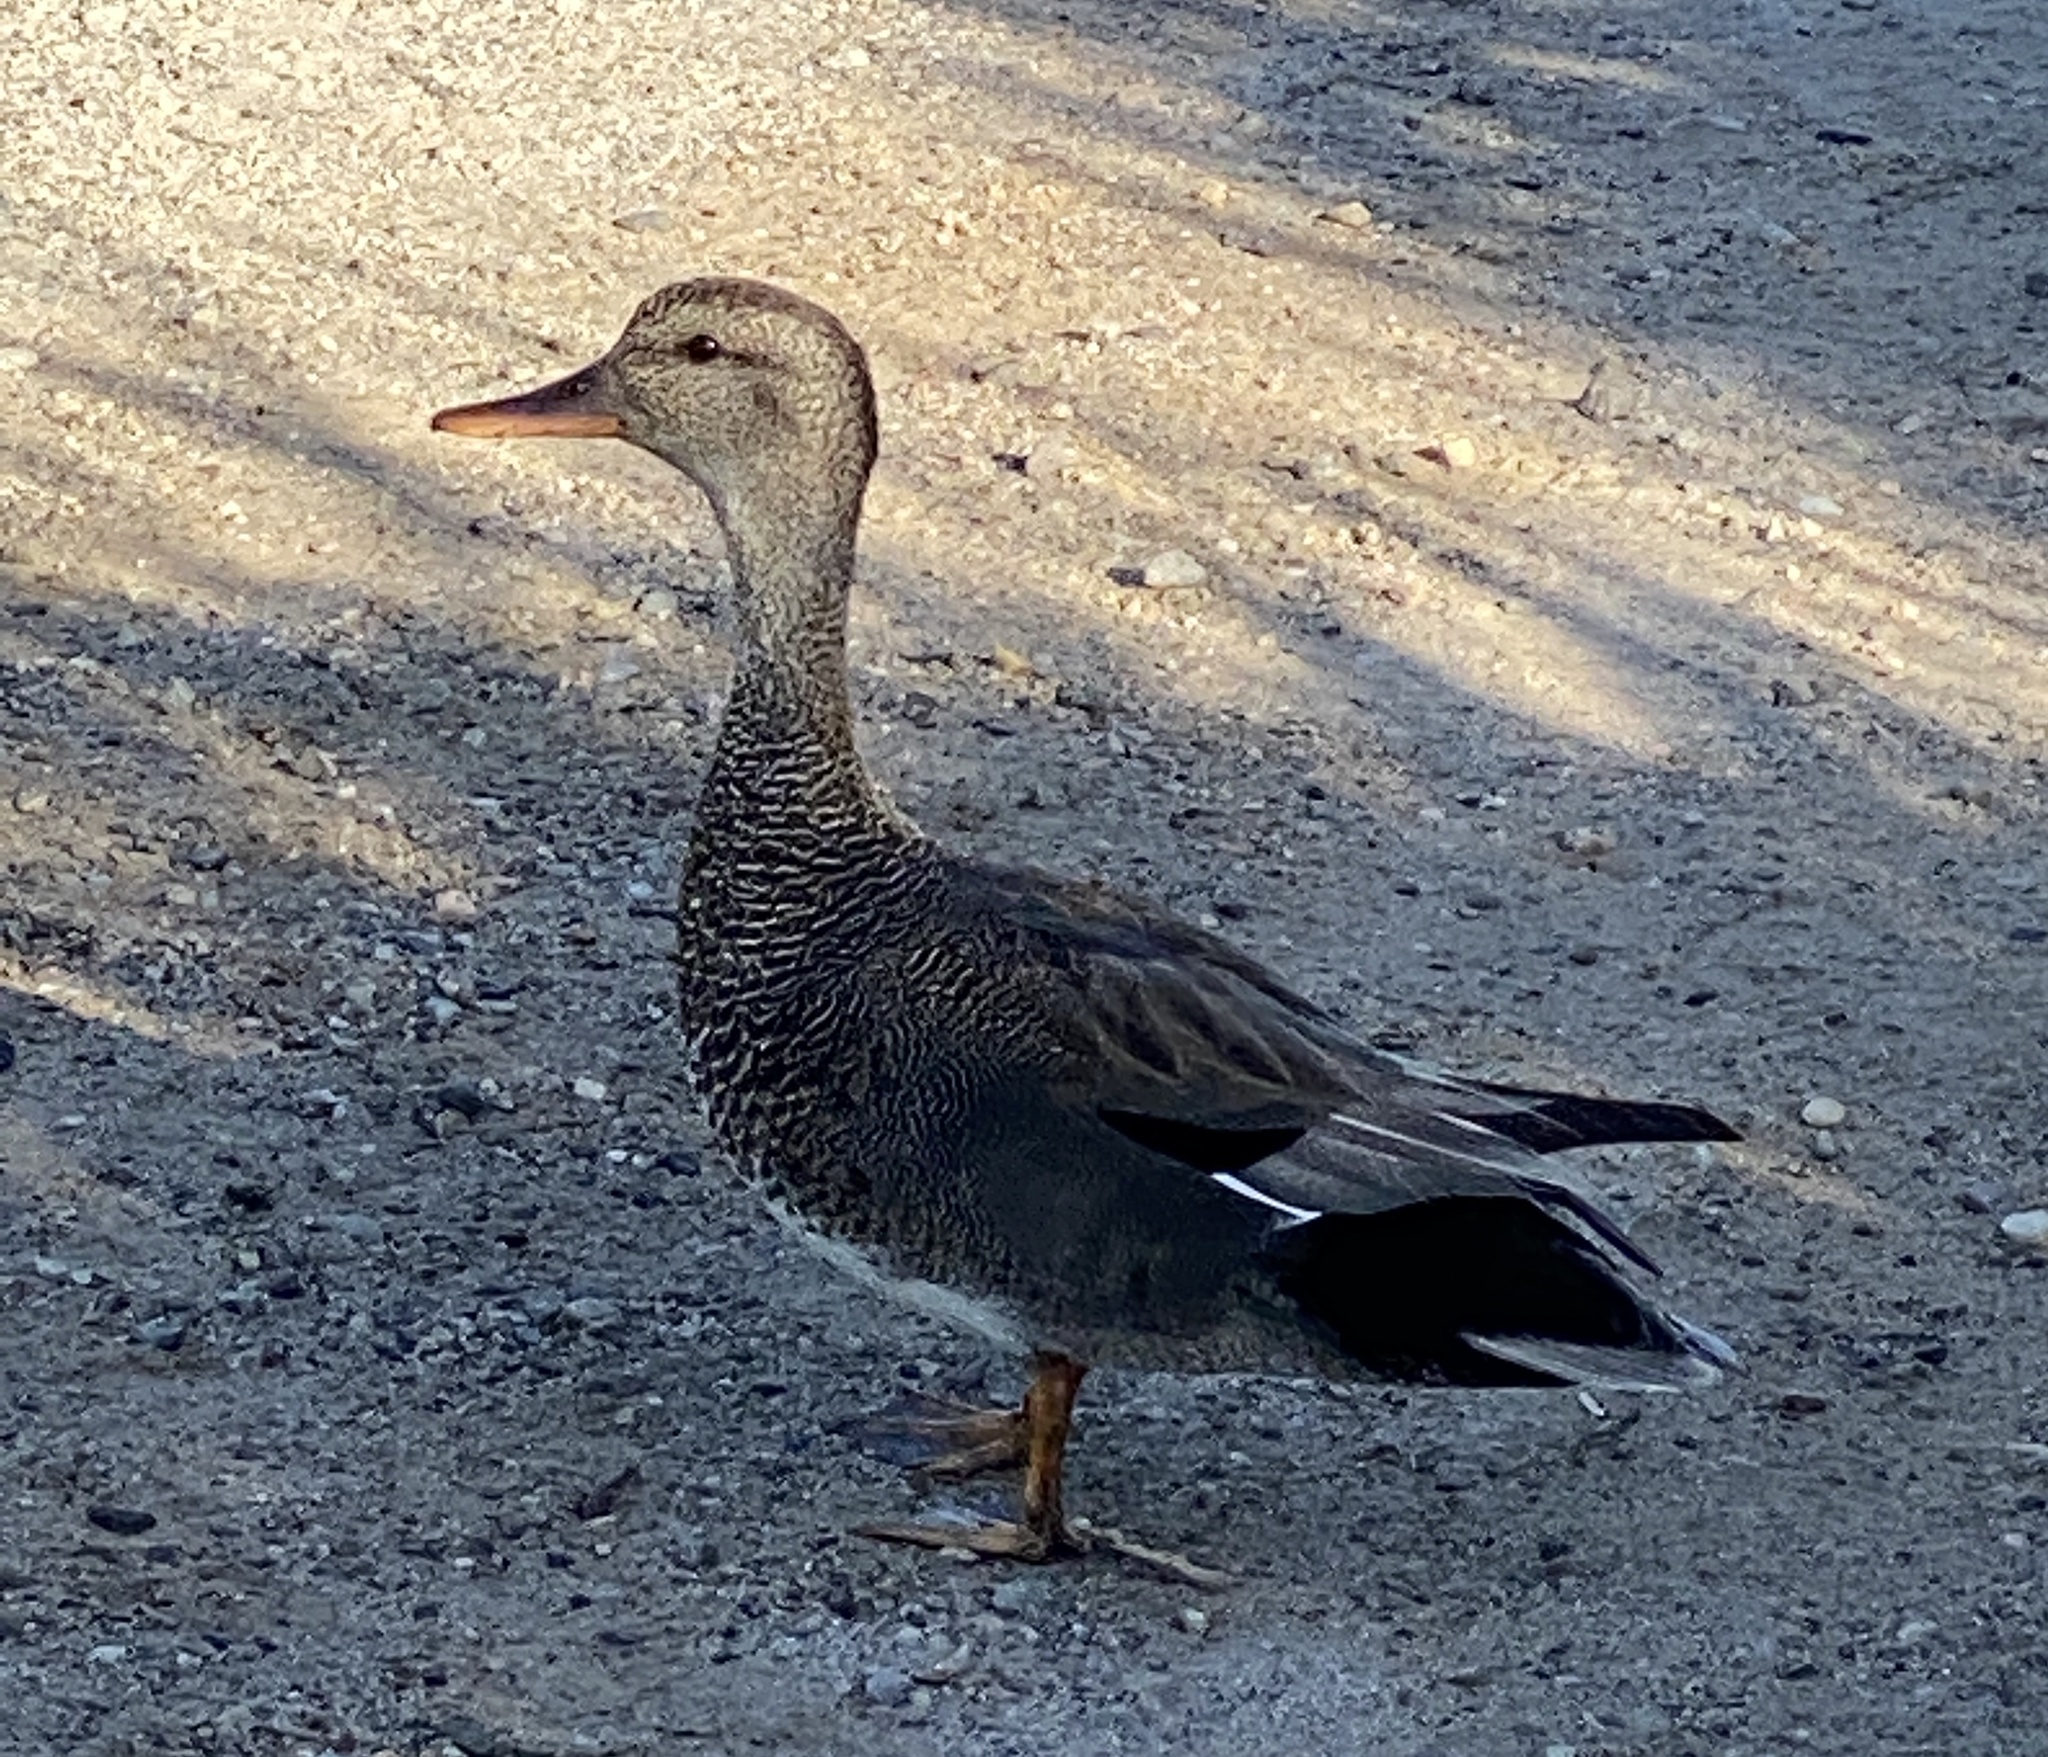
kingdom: Animalia
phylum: Chordata
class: Aves
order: Anseriformes
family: Anatidae
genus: Mareca
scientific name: Mareca strepera
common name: Gadwall
